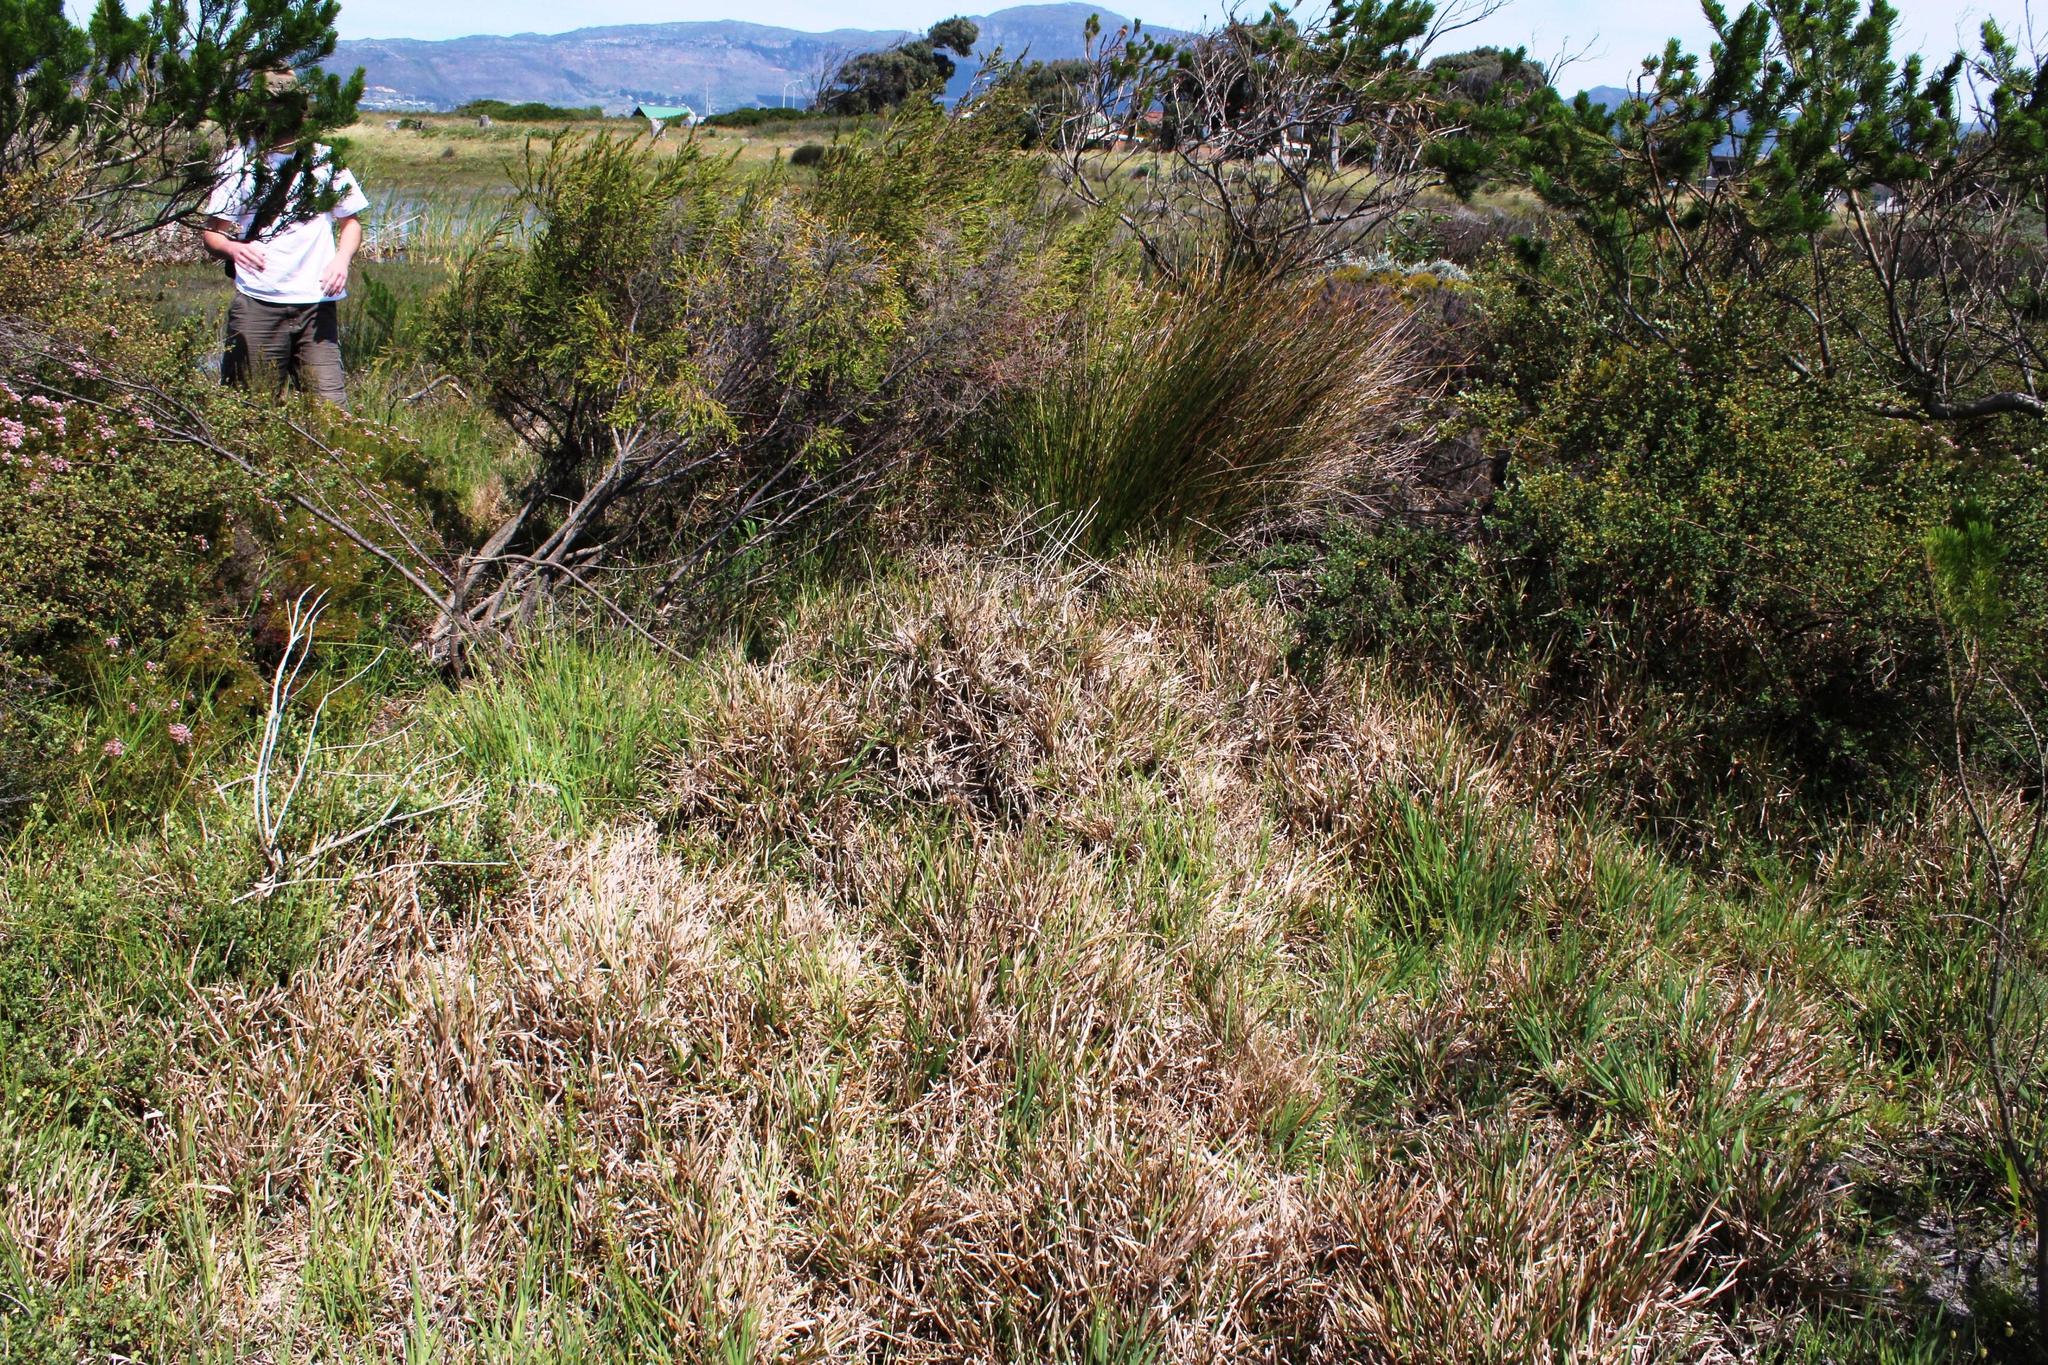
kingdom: Plantae
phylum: Tracheophyta
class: Liliopsida
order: Poales
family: Poaceae
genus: Stenotaphrum
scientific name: Stenotaphrum secundatum
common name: St. augustine grass
